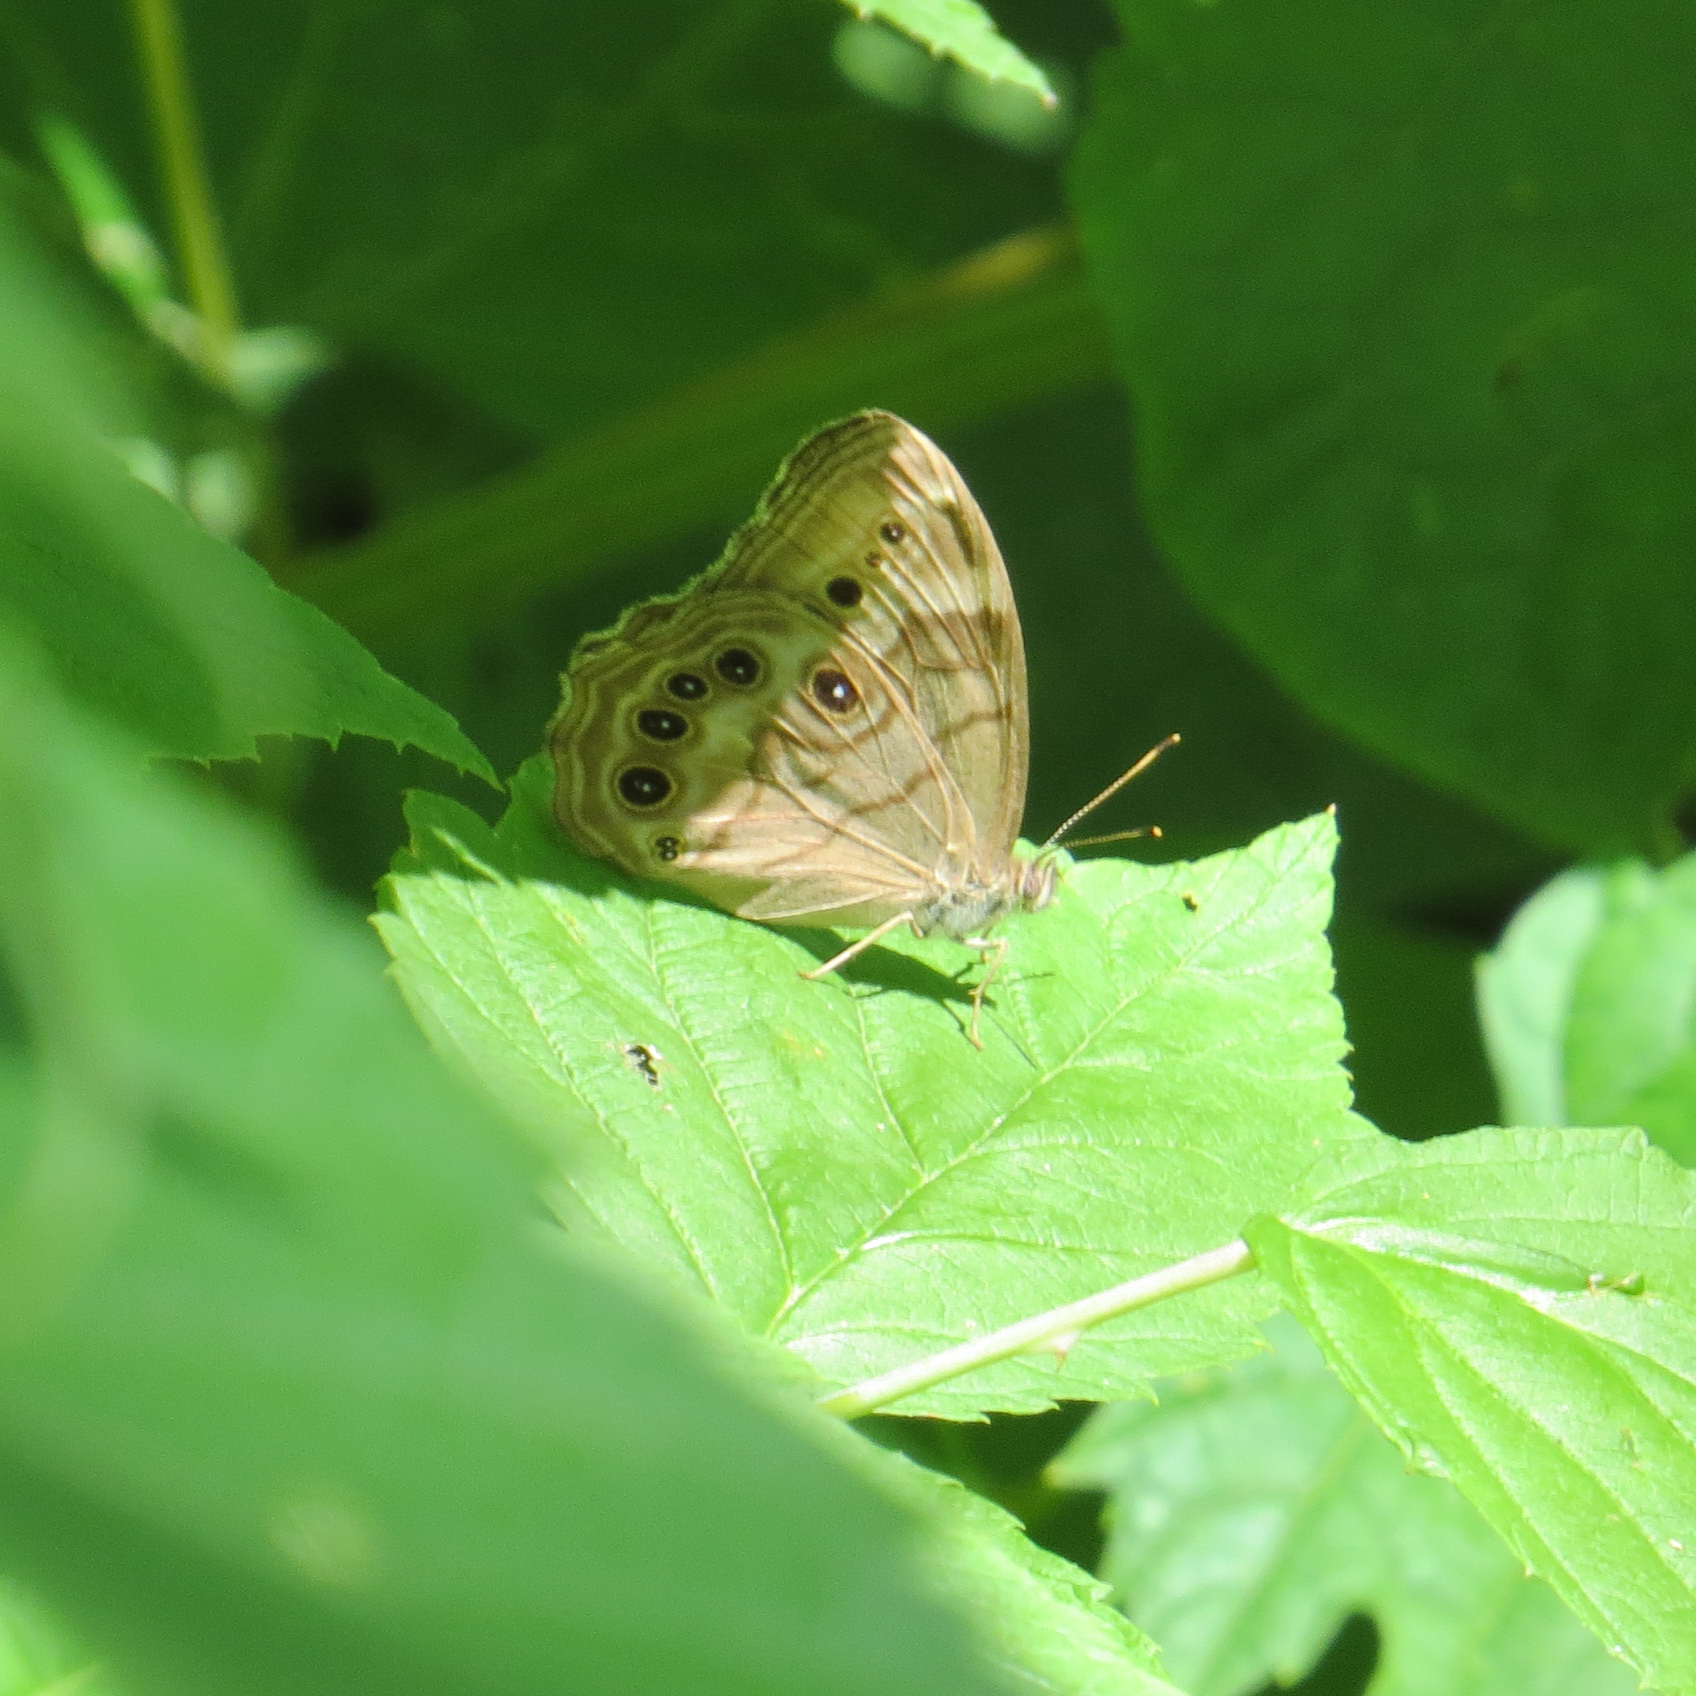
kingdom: Animalia
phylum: Arthropoda
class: Insecta
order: Lepidoptera
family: Nymphalidae
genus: Lethe
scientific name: Lethe anthedon
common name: Northern pearly-eye
